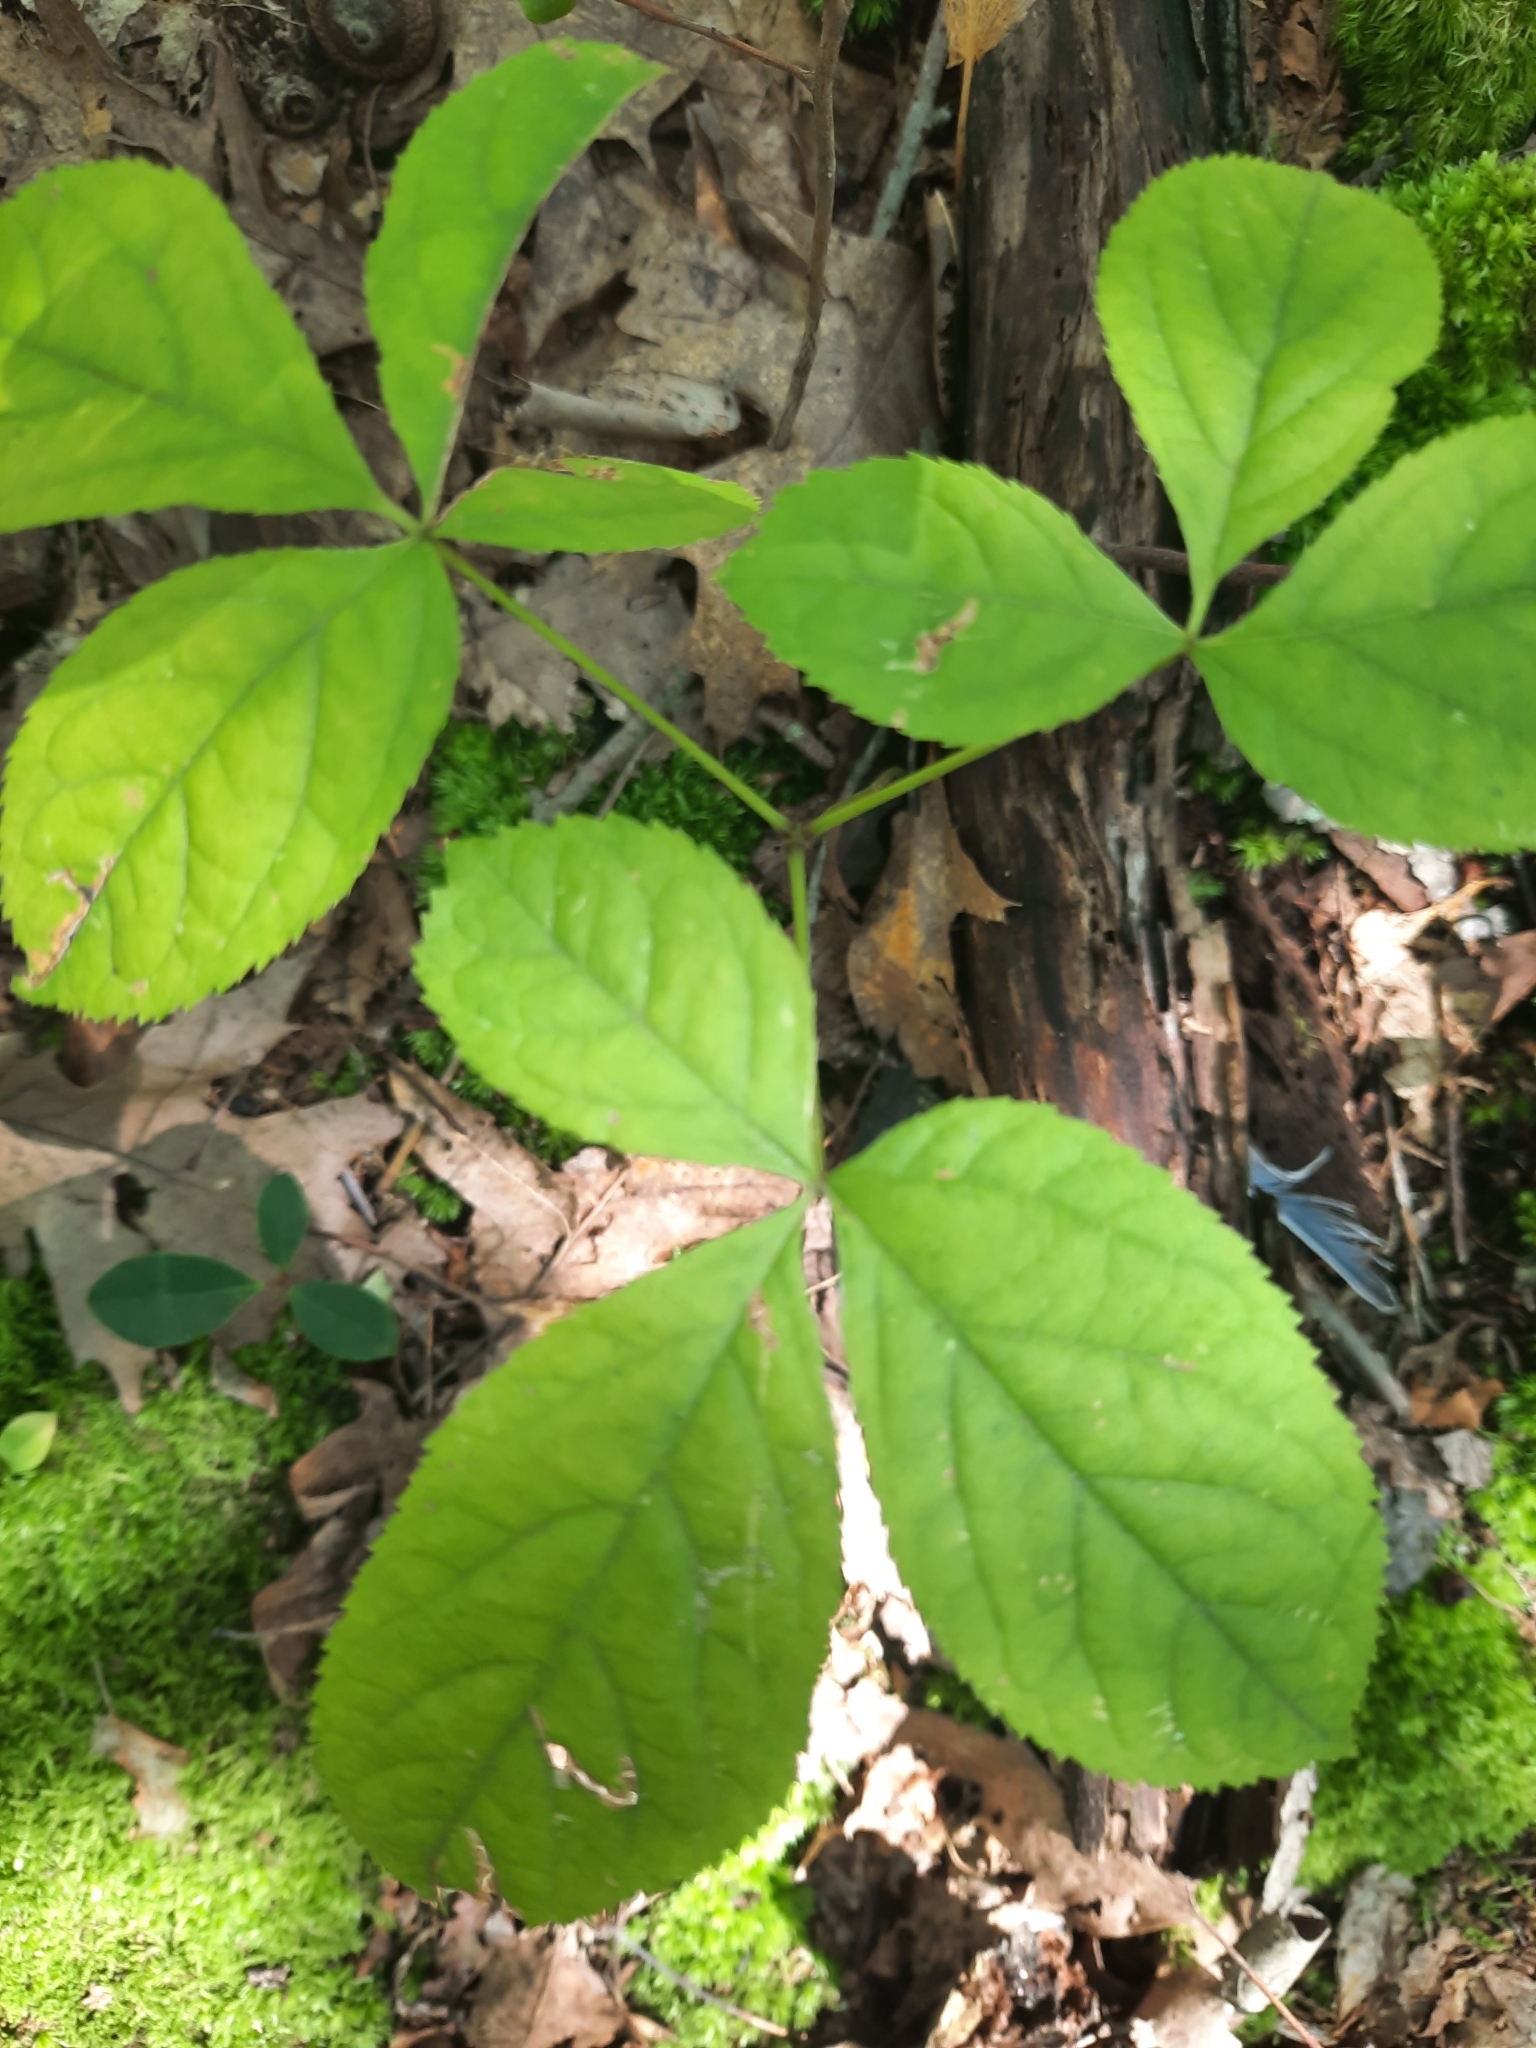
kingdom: Plantae
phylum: Tracheophyta
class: Magnoliopsida
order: Apiales
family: Araliaceae
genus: Aralia
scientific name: Aralia nudicaulis
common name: Wild sarsaparilla
